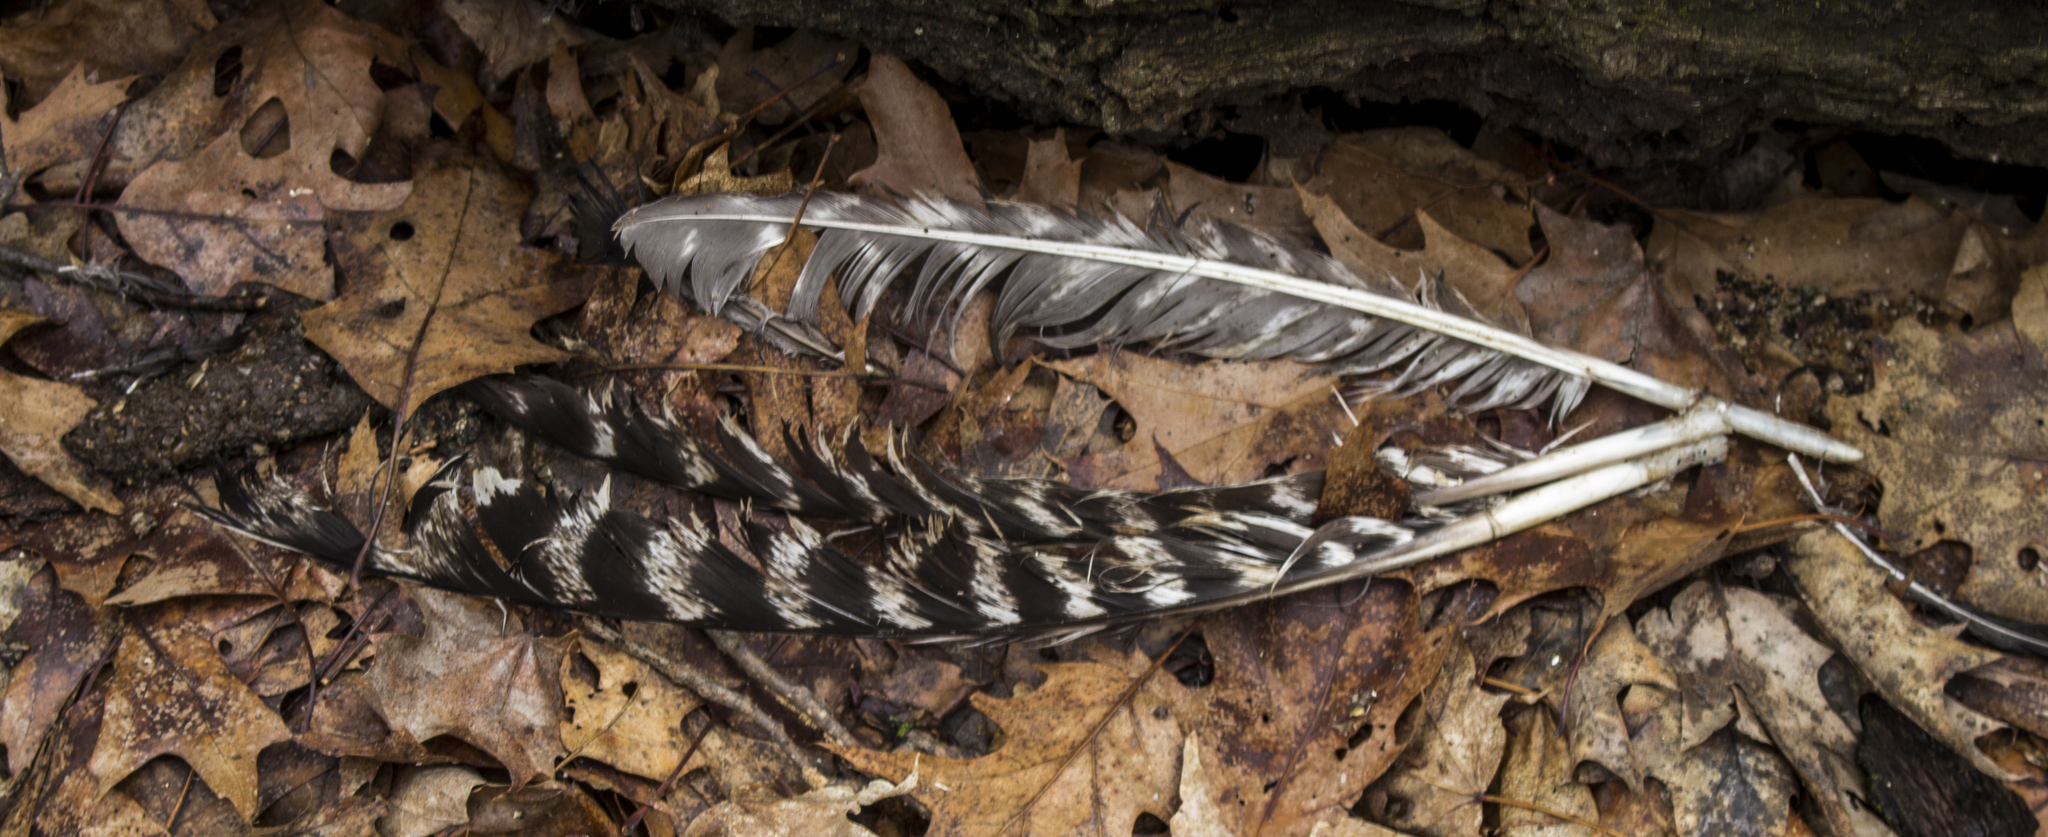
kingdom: Animalia
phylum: Chordata
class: Aves
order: Galliformes
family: Phasianidae
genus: Meleagris
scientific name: Meleagris gallopavo
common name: Wild turkey
